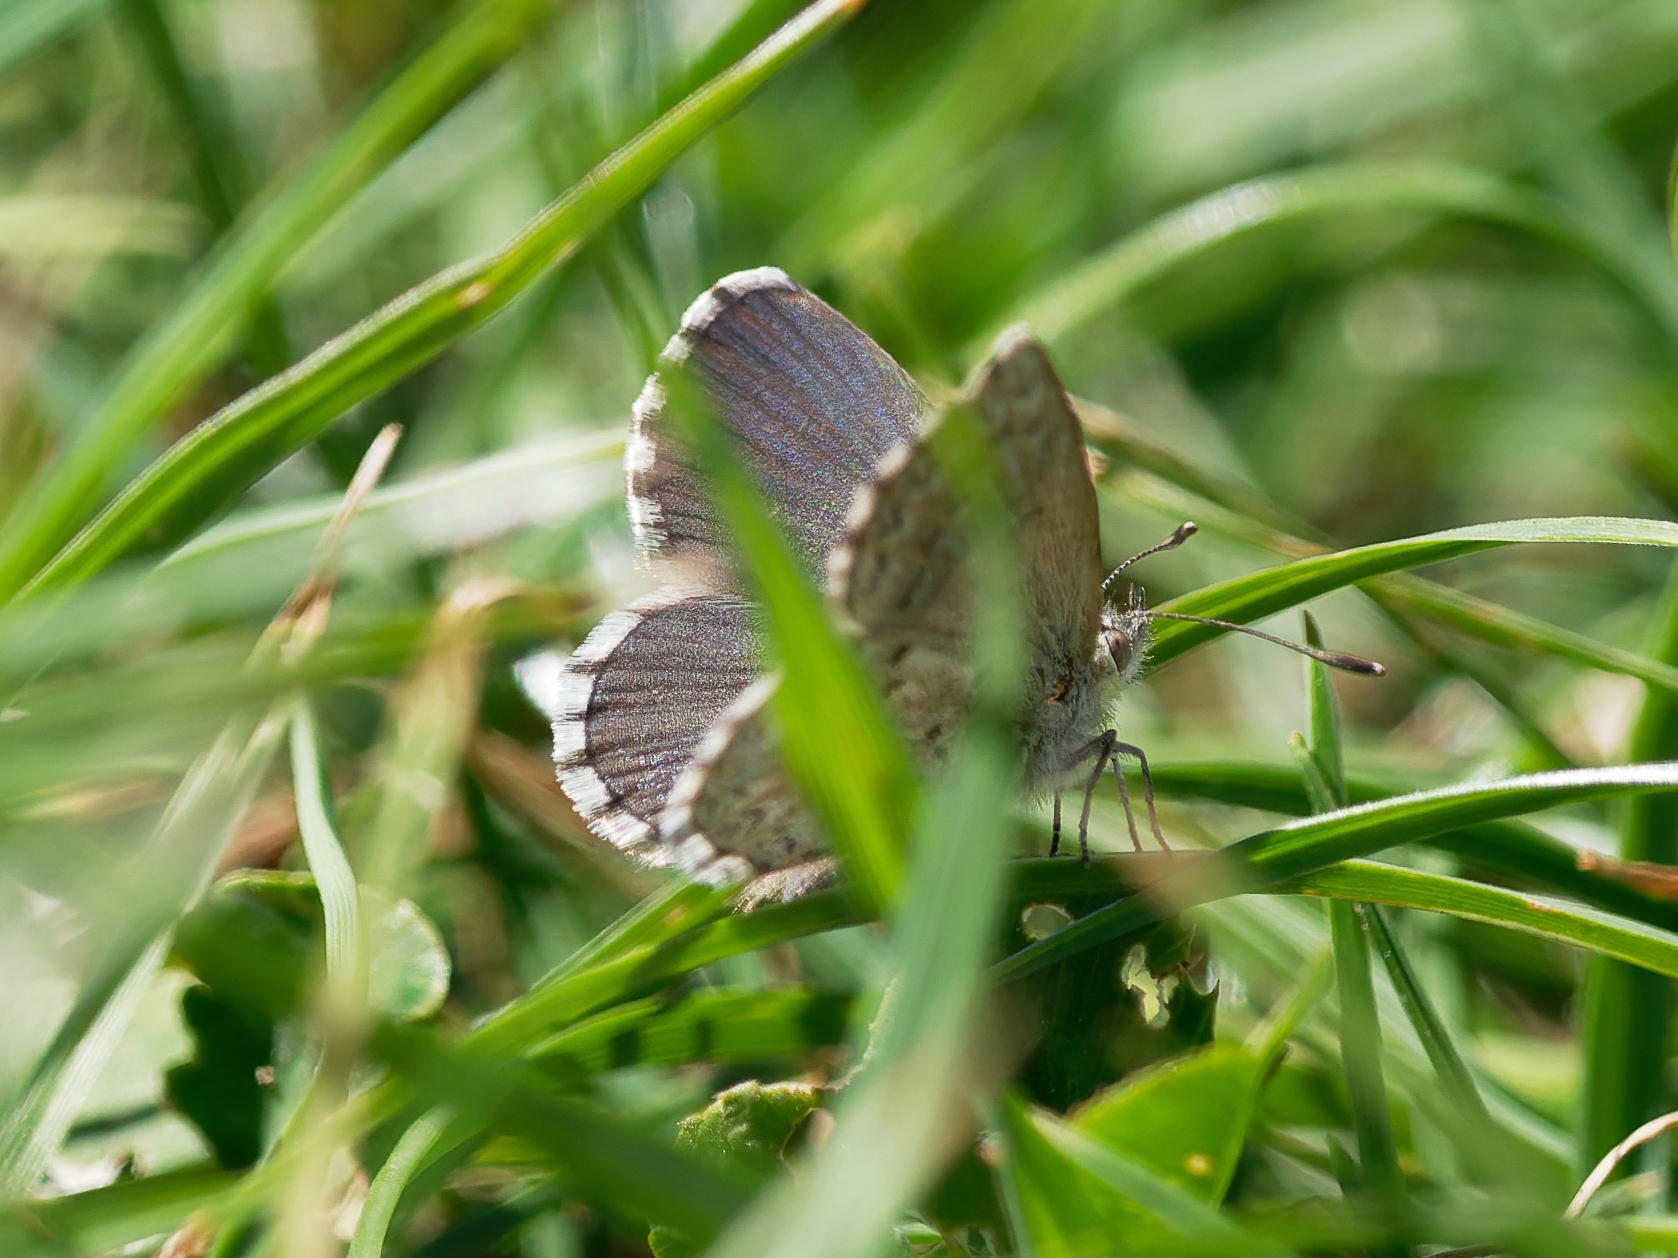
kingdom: Animalia
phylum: Arthropoda
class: Insecta
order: Lepidoptera
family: Lycaenidae
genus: Zizina
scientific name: Zizina oxleyi
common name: Southern blue
